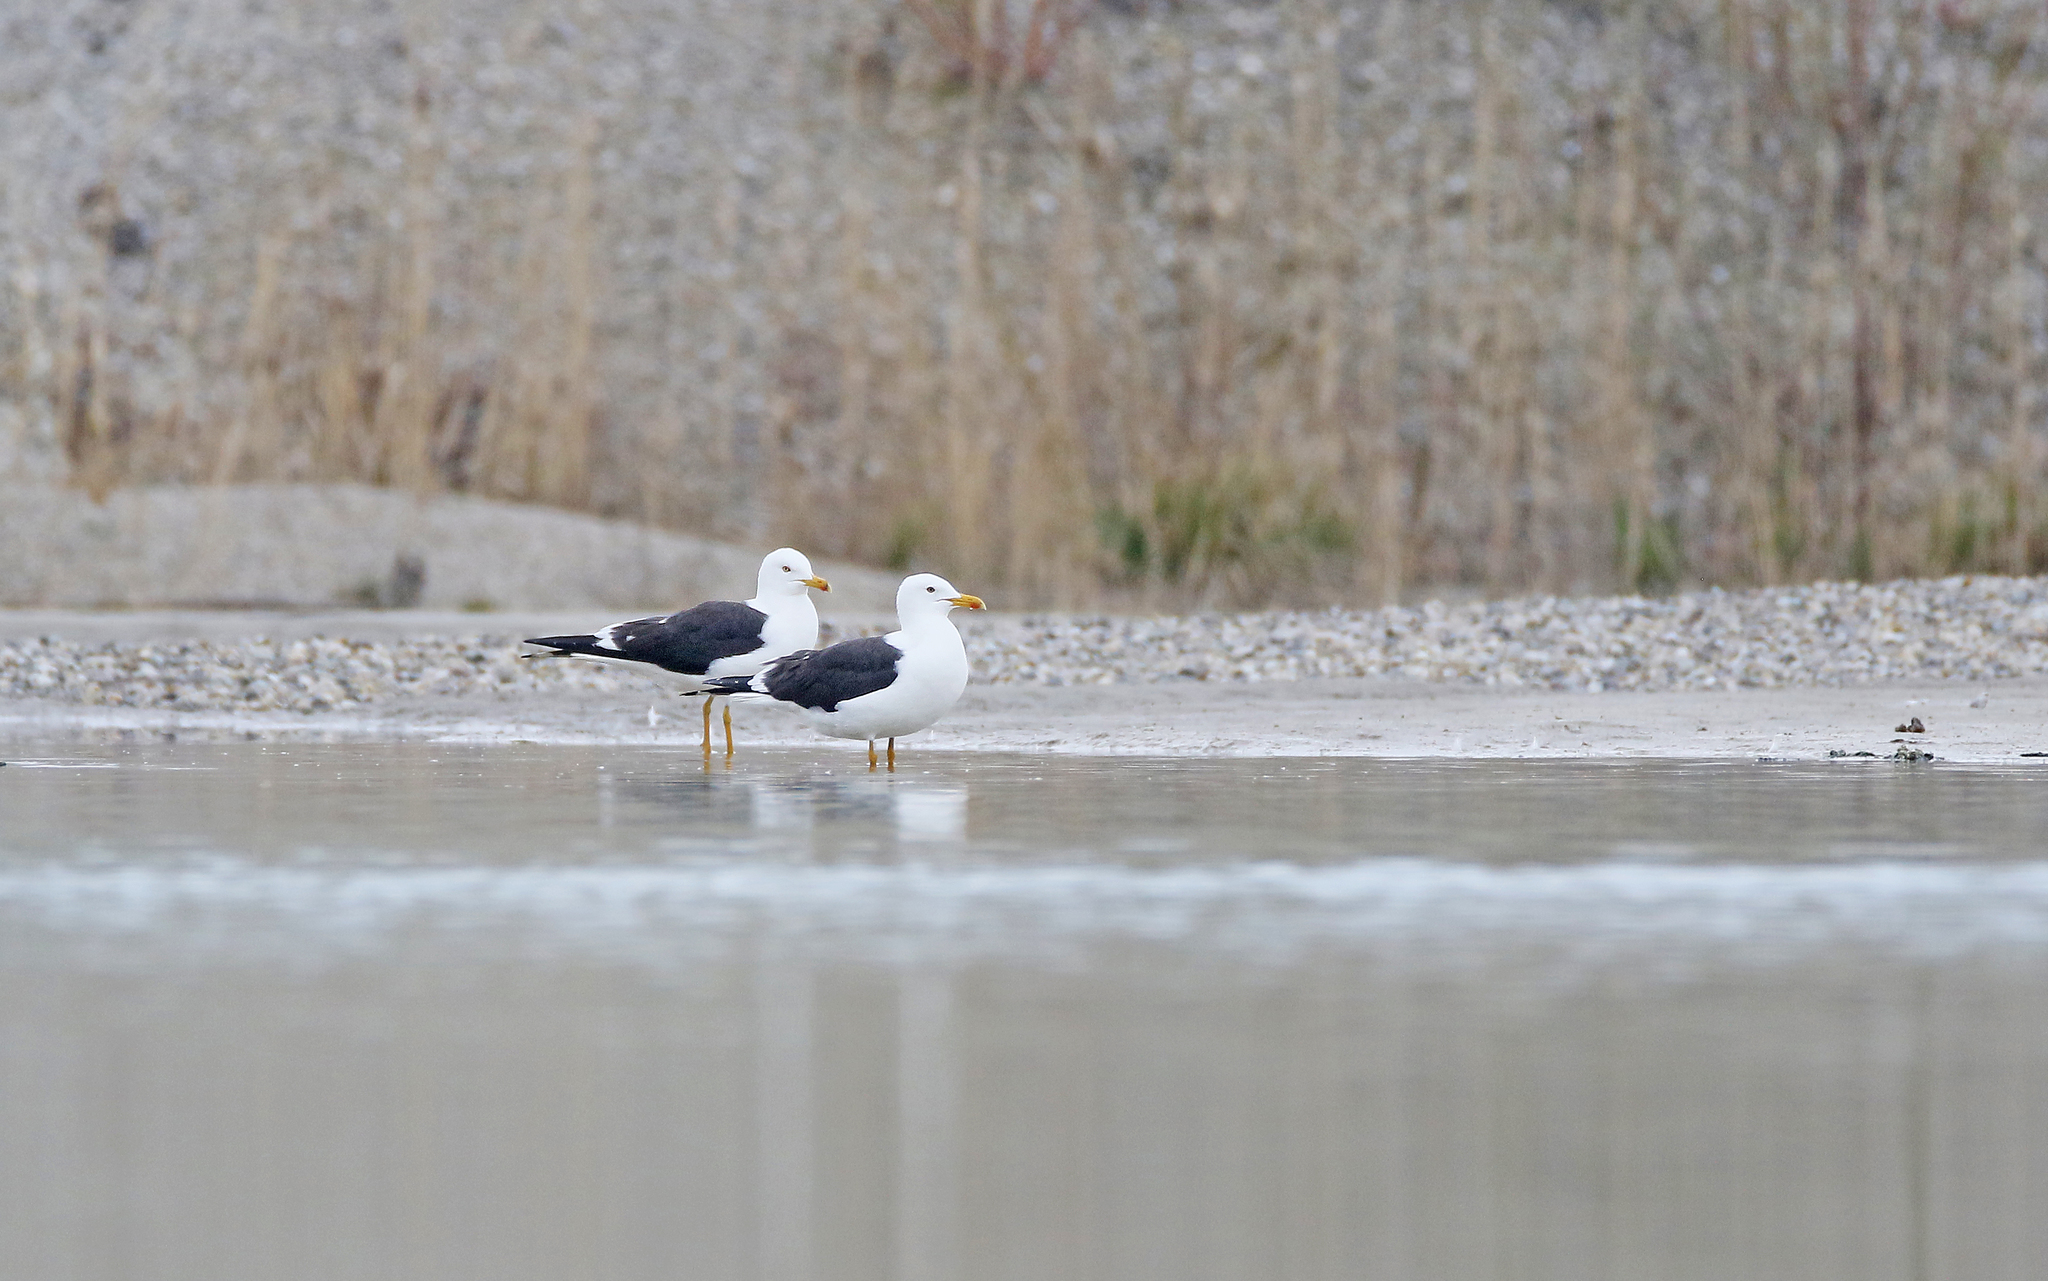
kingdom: Animalia
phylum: Chordata
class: Aves
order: Charadriiformes
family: Laridae
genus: Larus
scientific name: Larus fuscus
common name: Lesser black-backed gull
